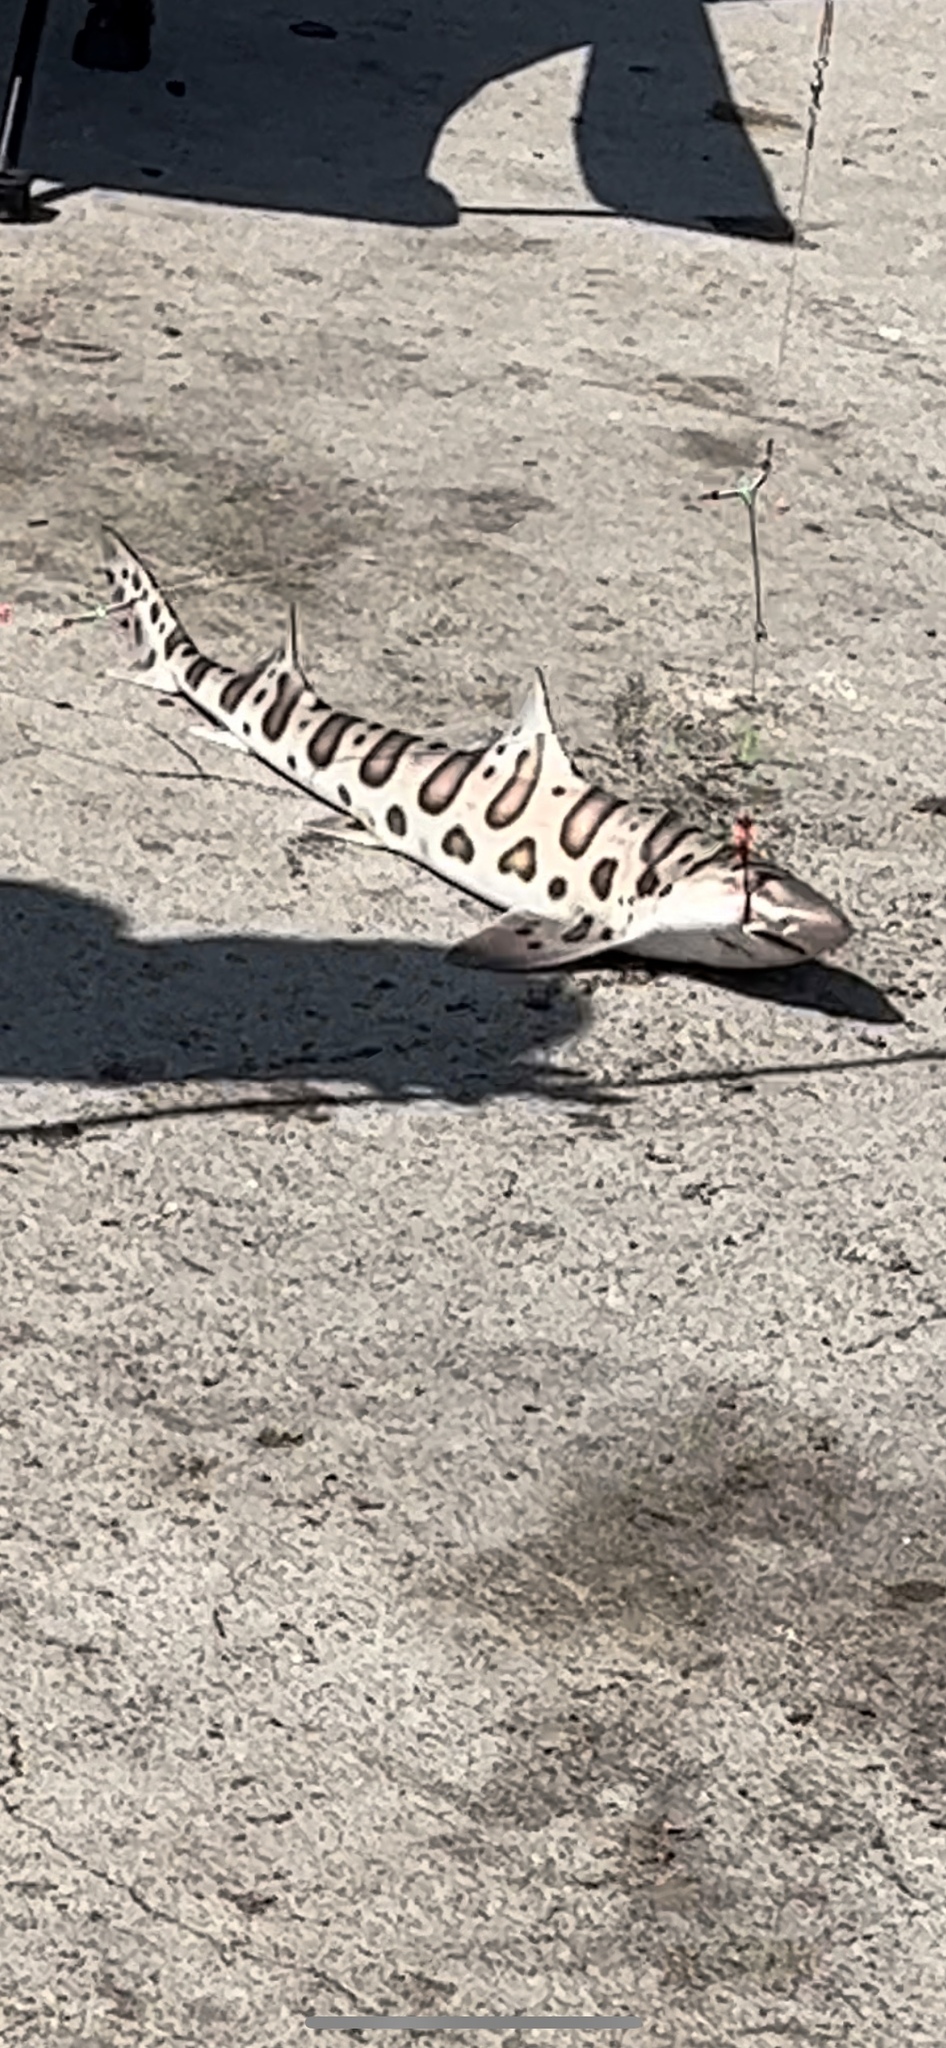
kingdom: Animalia
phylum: Chordata
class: Elasmobranchii
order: Carcharhiniformes
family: Triakidae
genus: Triakis
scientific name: Triakis semifasciata
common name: Leopard shark
